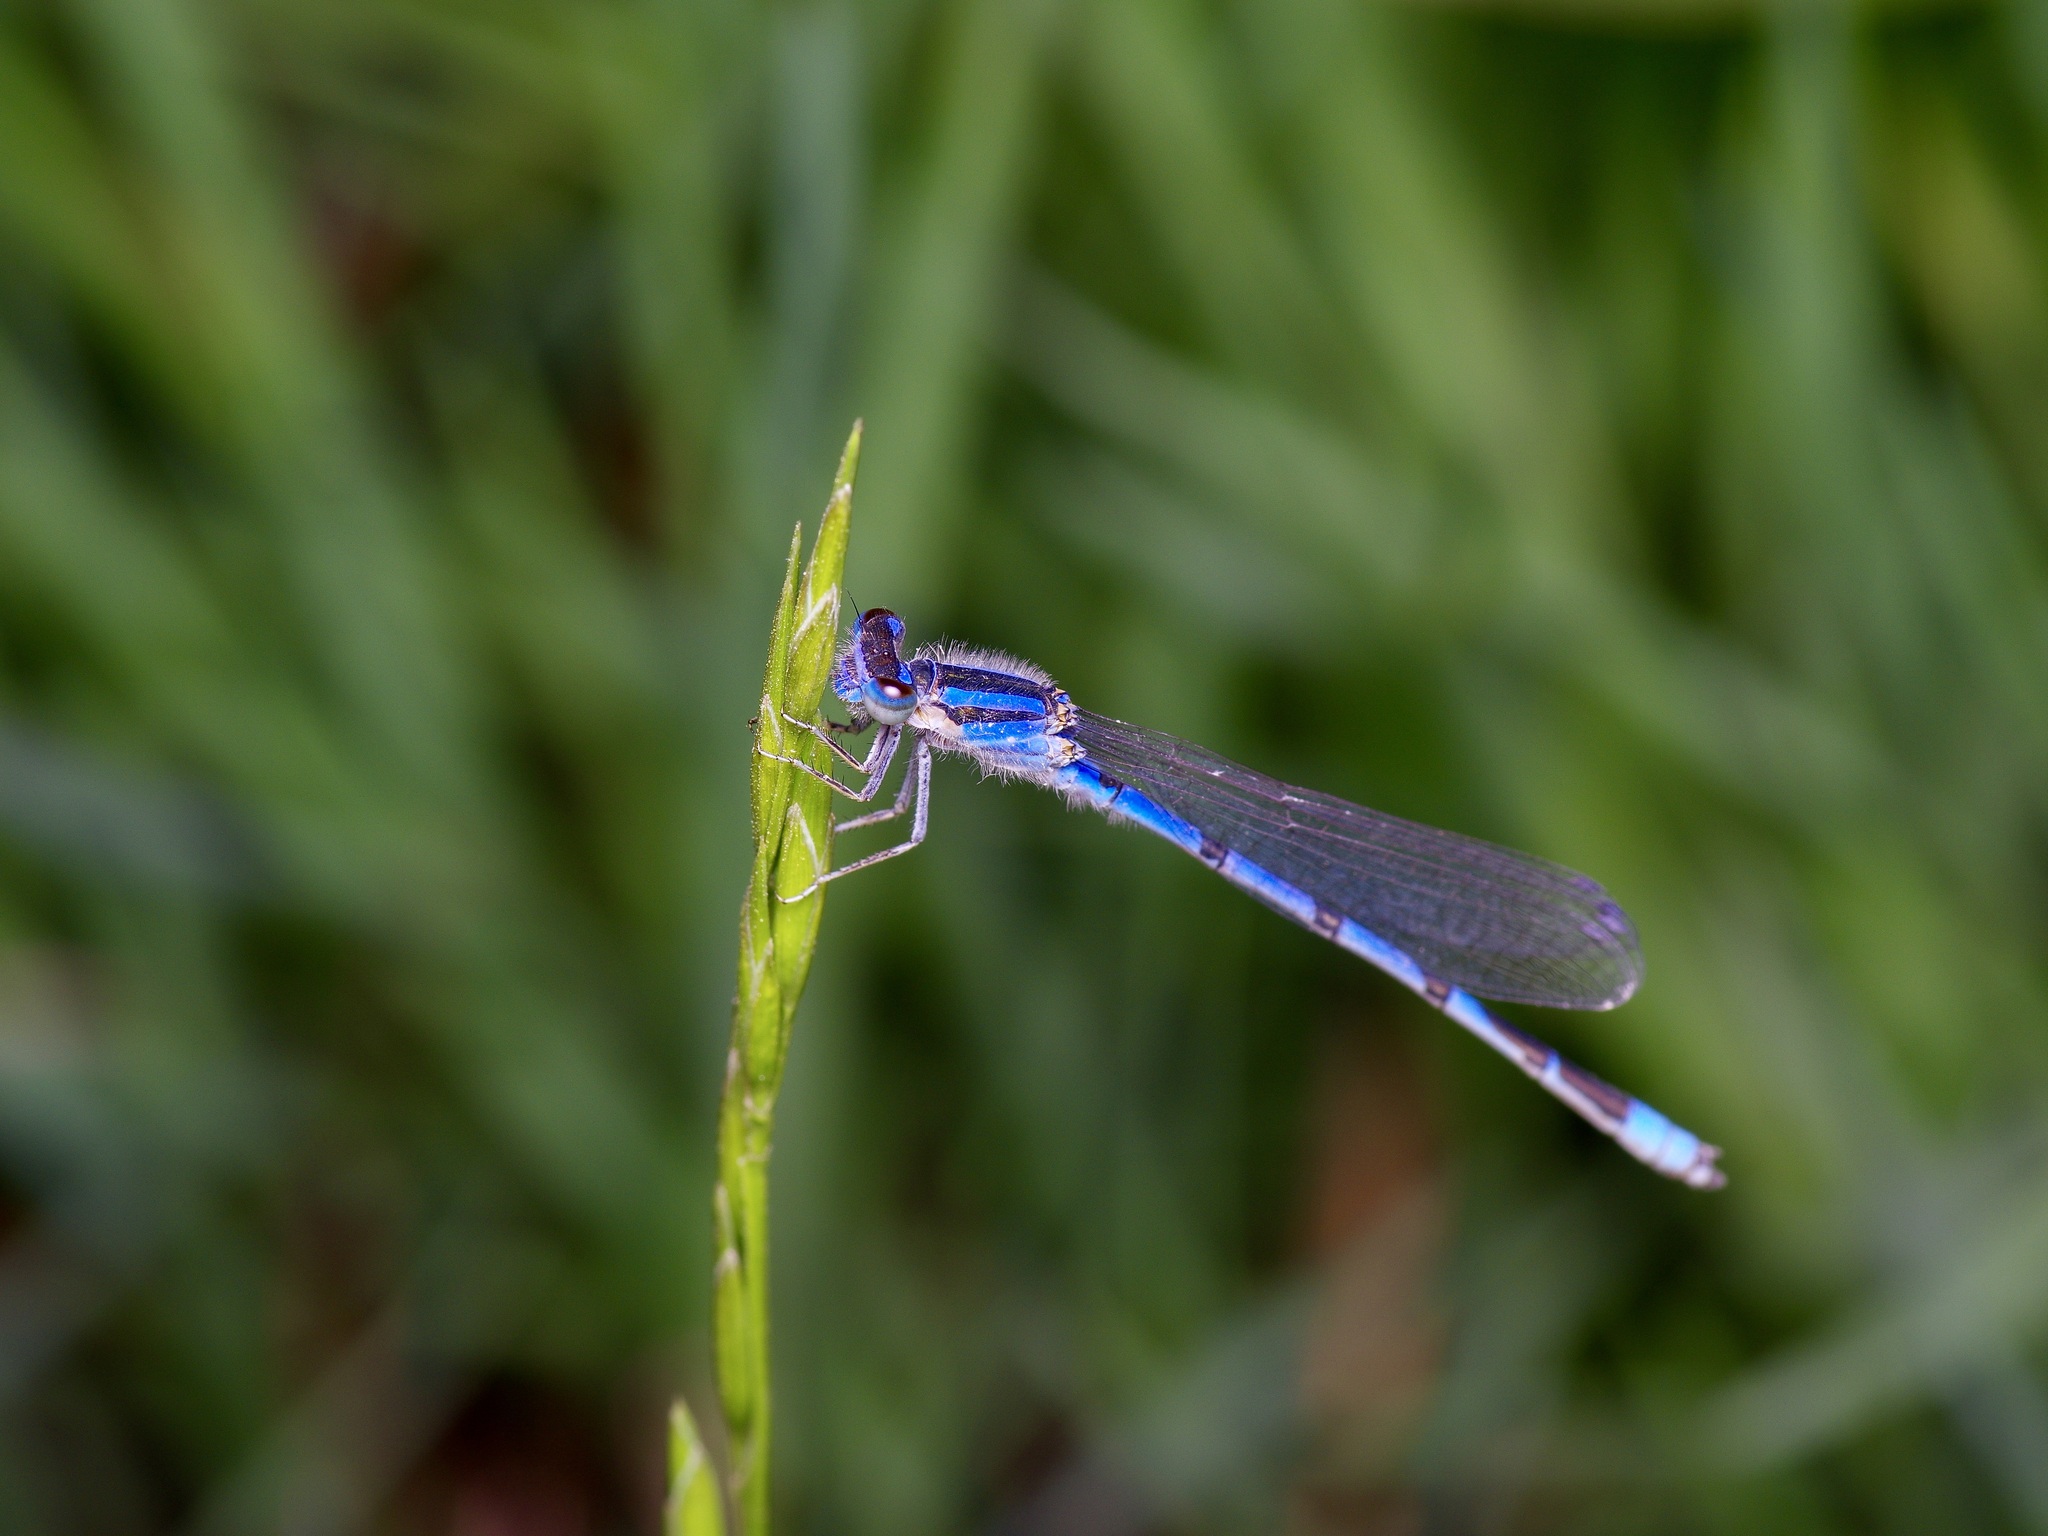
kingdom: Animalia
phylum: Arthropoda
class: Insecta
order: Odonata
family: Coenagrionidae
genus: Enallagma
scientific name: Enallagma civile
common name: Damselfly
